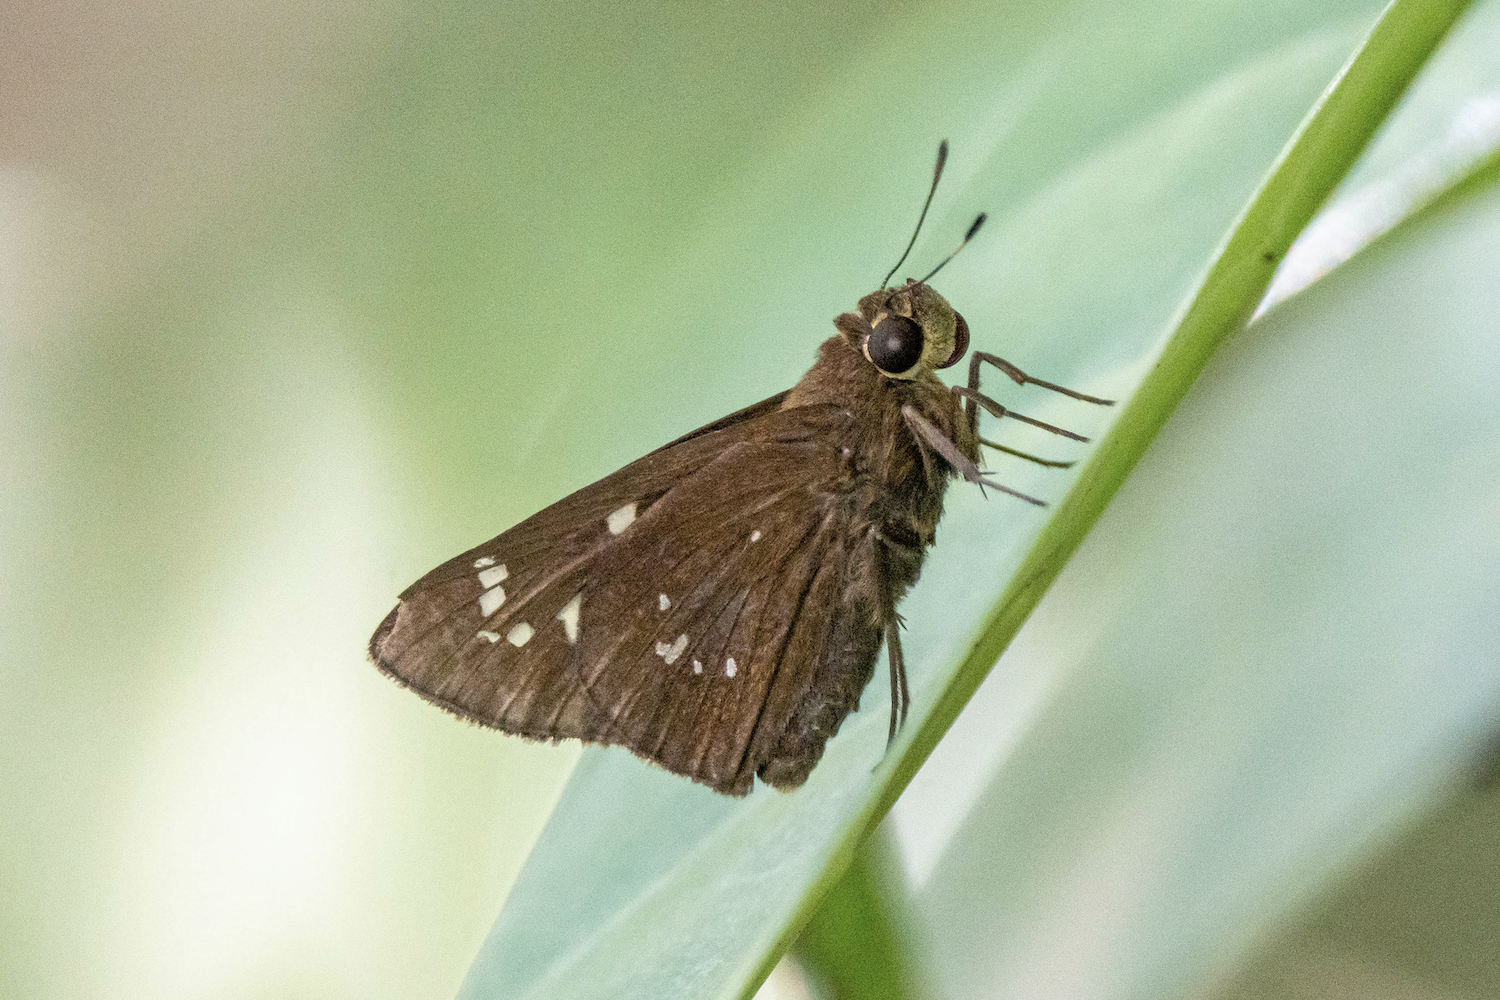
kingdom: Animalia
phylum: Arthropoda
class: Insecta
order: Lepidoptera
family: Hesperiidae
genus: Pelopidas
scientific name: Pelopidas assamensis
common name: Great swift
